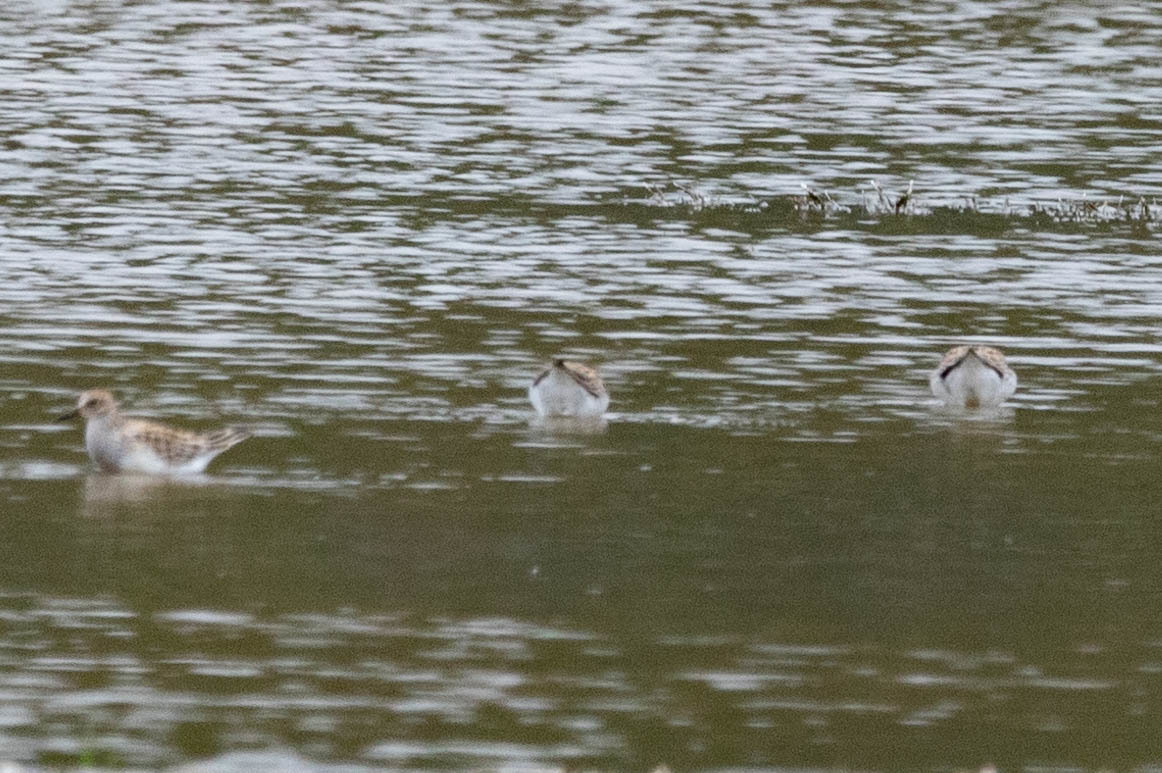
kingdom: Animalia
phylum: Chordata
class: Aves
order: Charadriiformes
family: Scolopacidae
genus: Calidris
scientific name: Calidris melanotos
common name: Pectoral sandpiper
